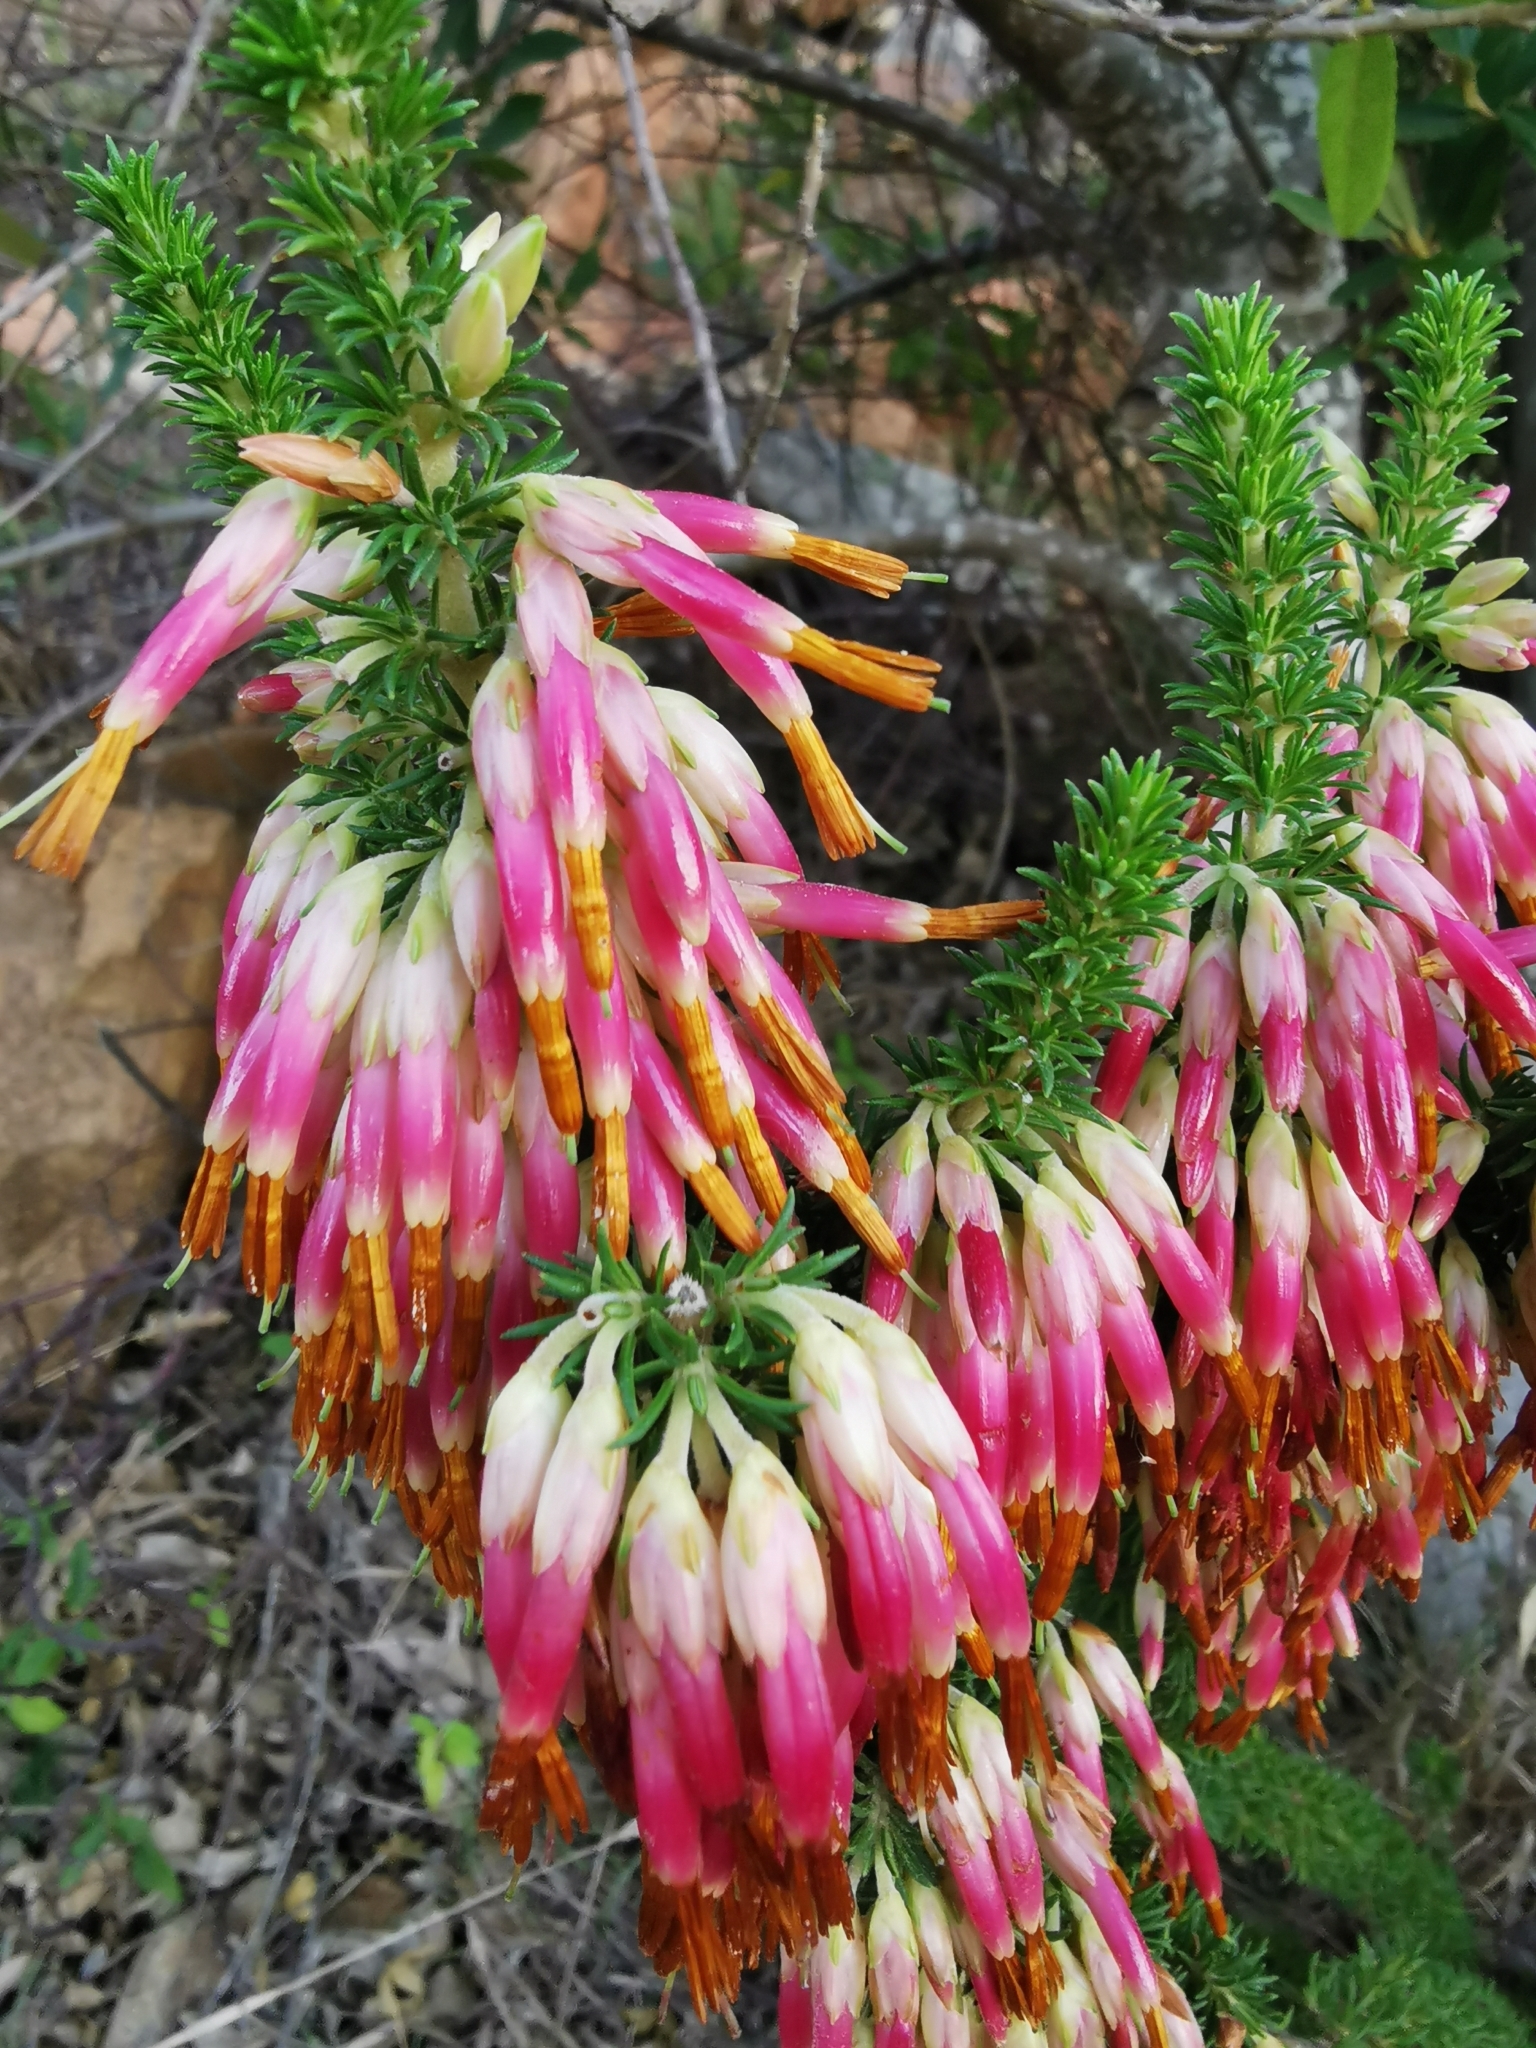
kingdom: Plantae
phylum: Tracheophyta
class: Magnoliopsida
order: Ericales
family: Ericaceae
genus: Erica
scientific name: Erica coccinea
